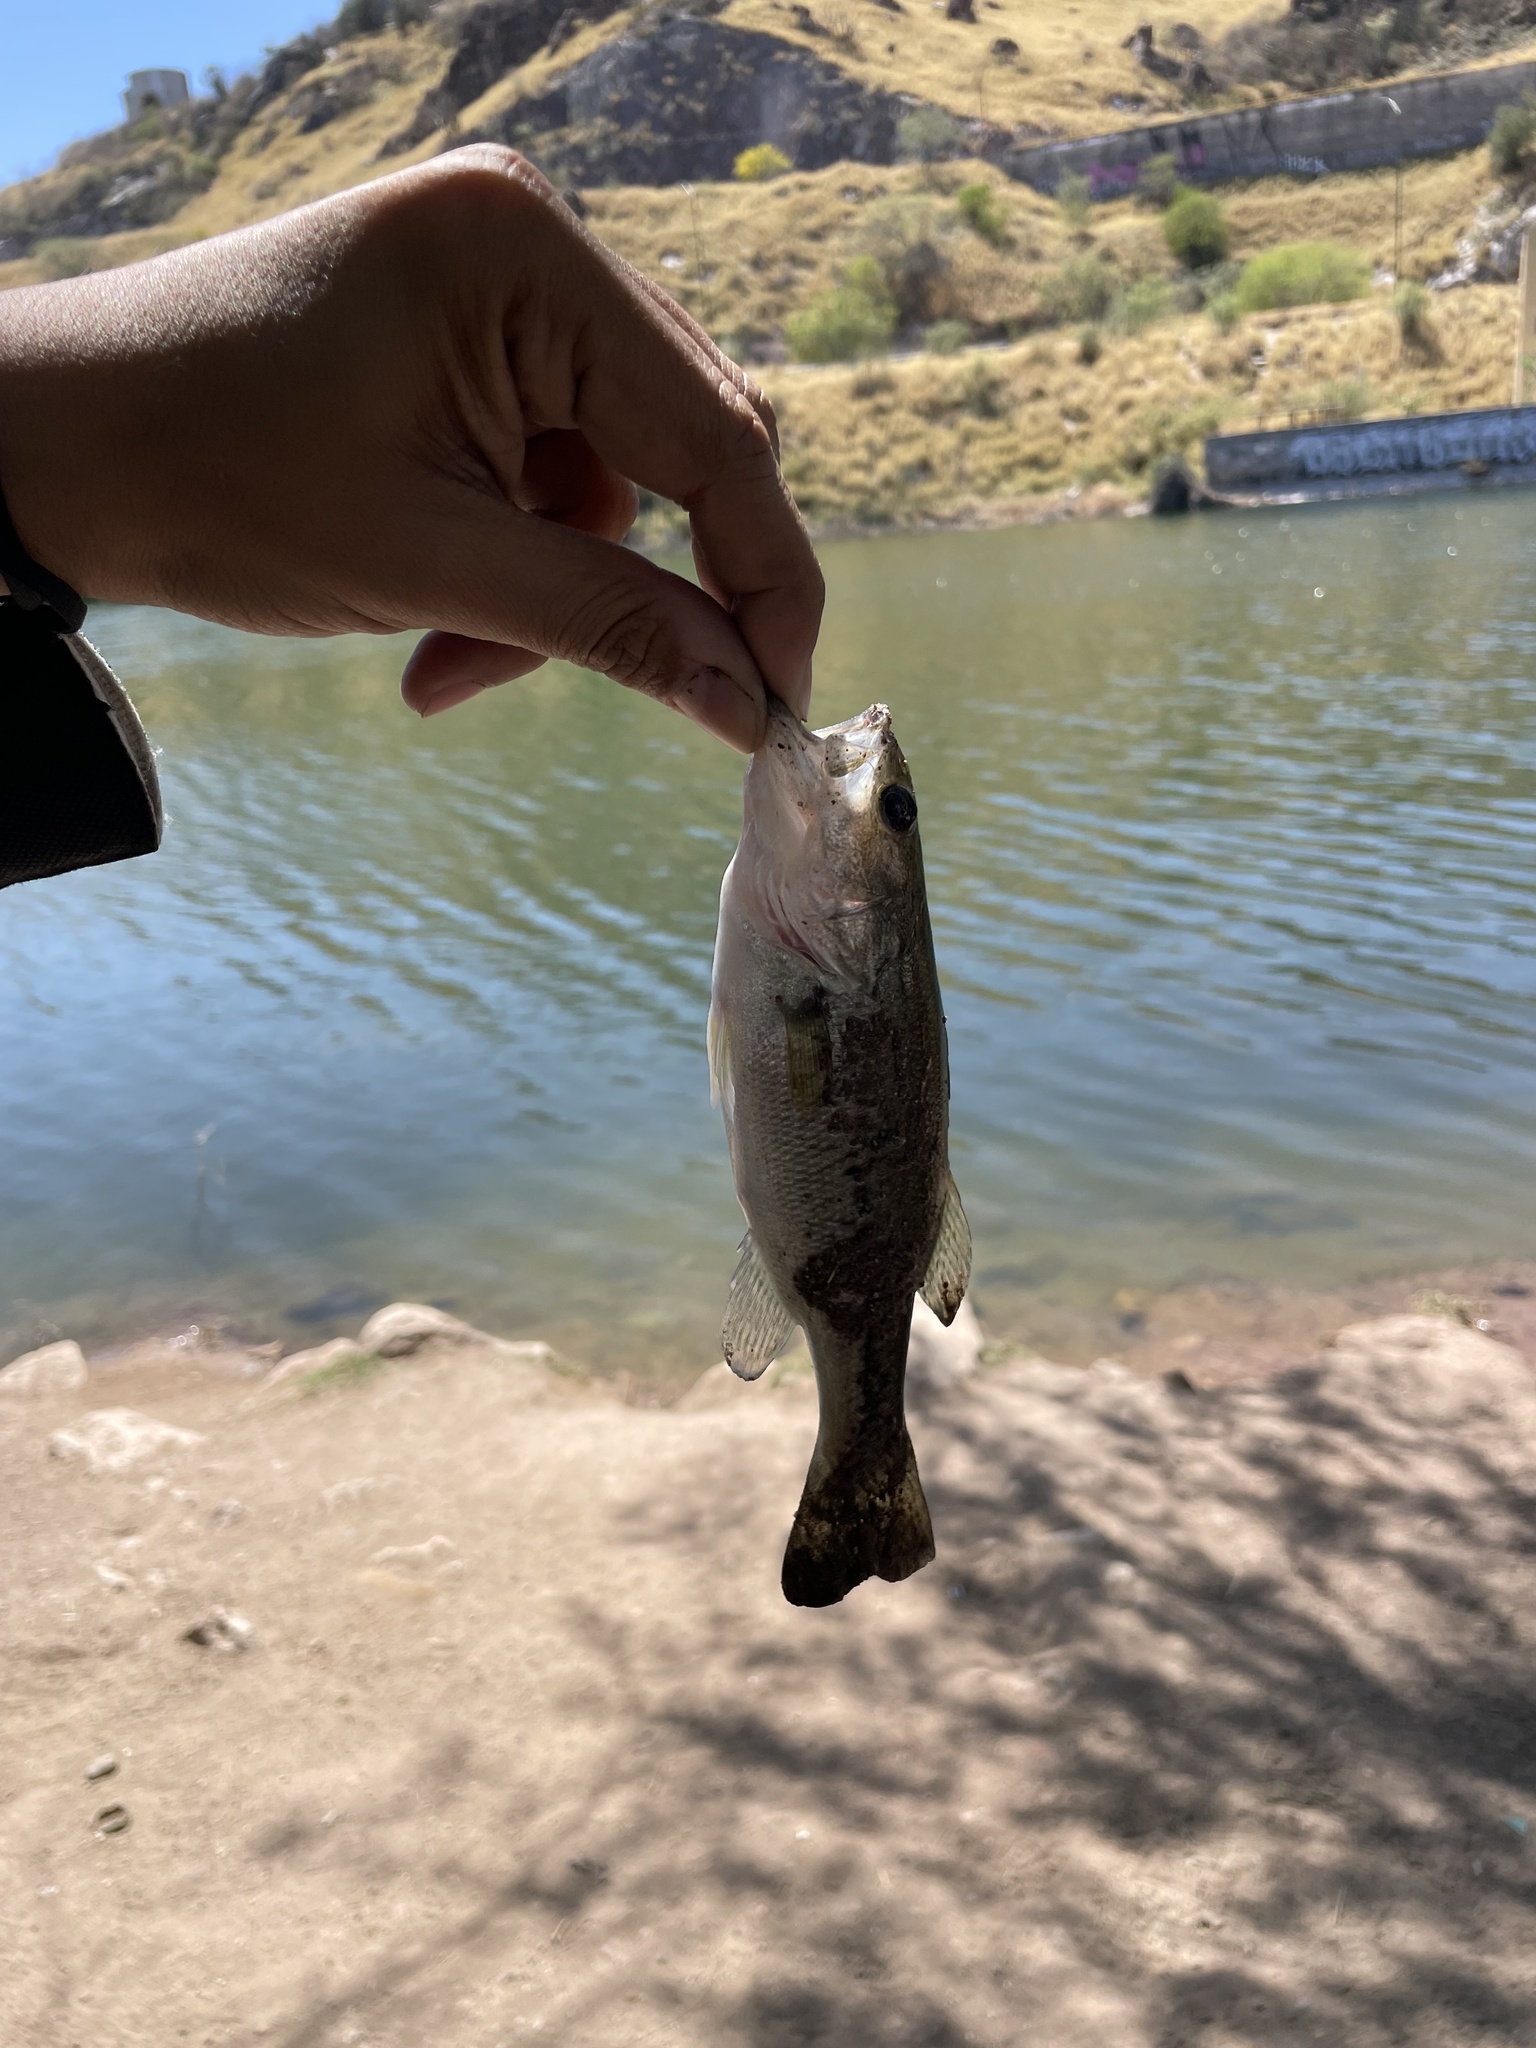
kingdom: Animalia
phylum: Chordata
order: Perciformes
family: Centrarchidae
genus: Micropterus
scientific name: Micropterus
